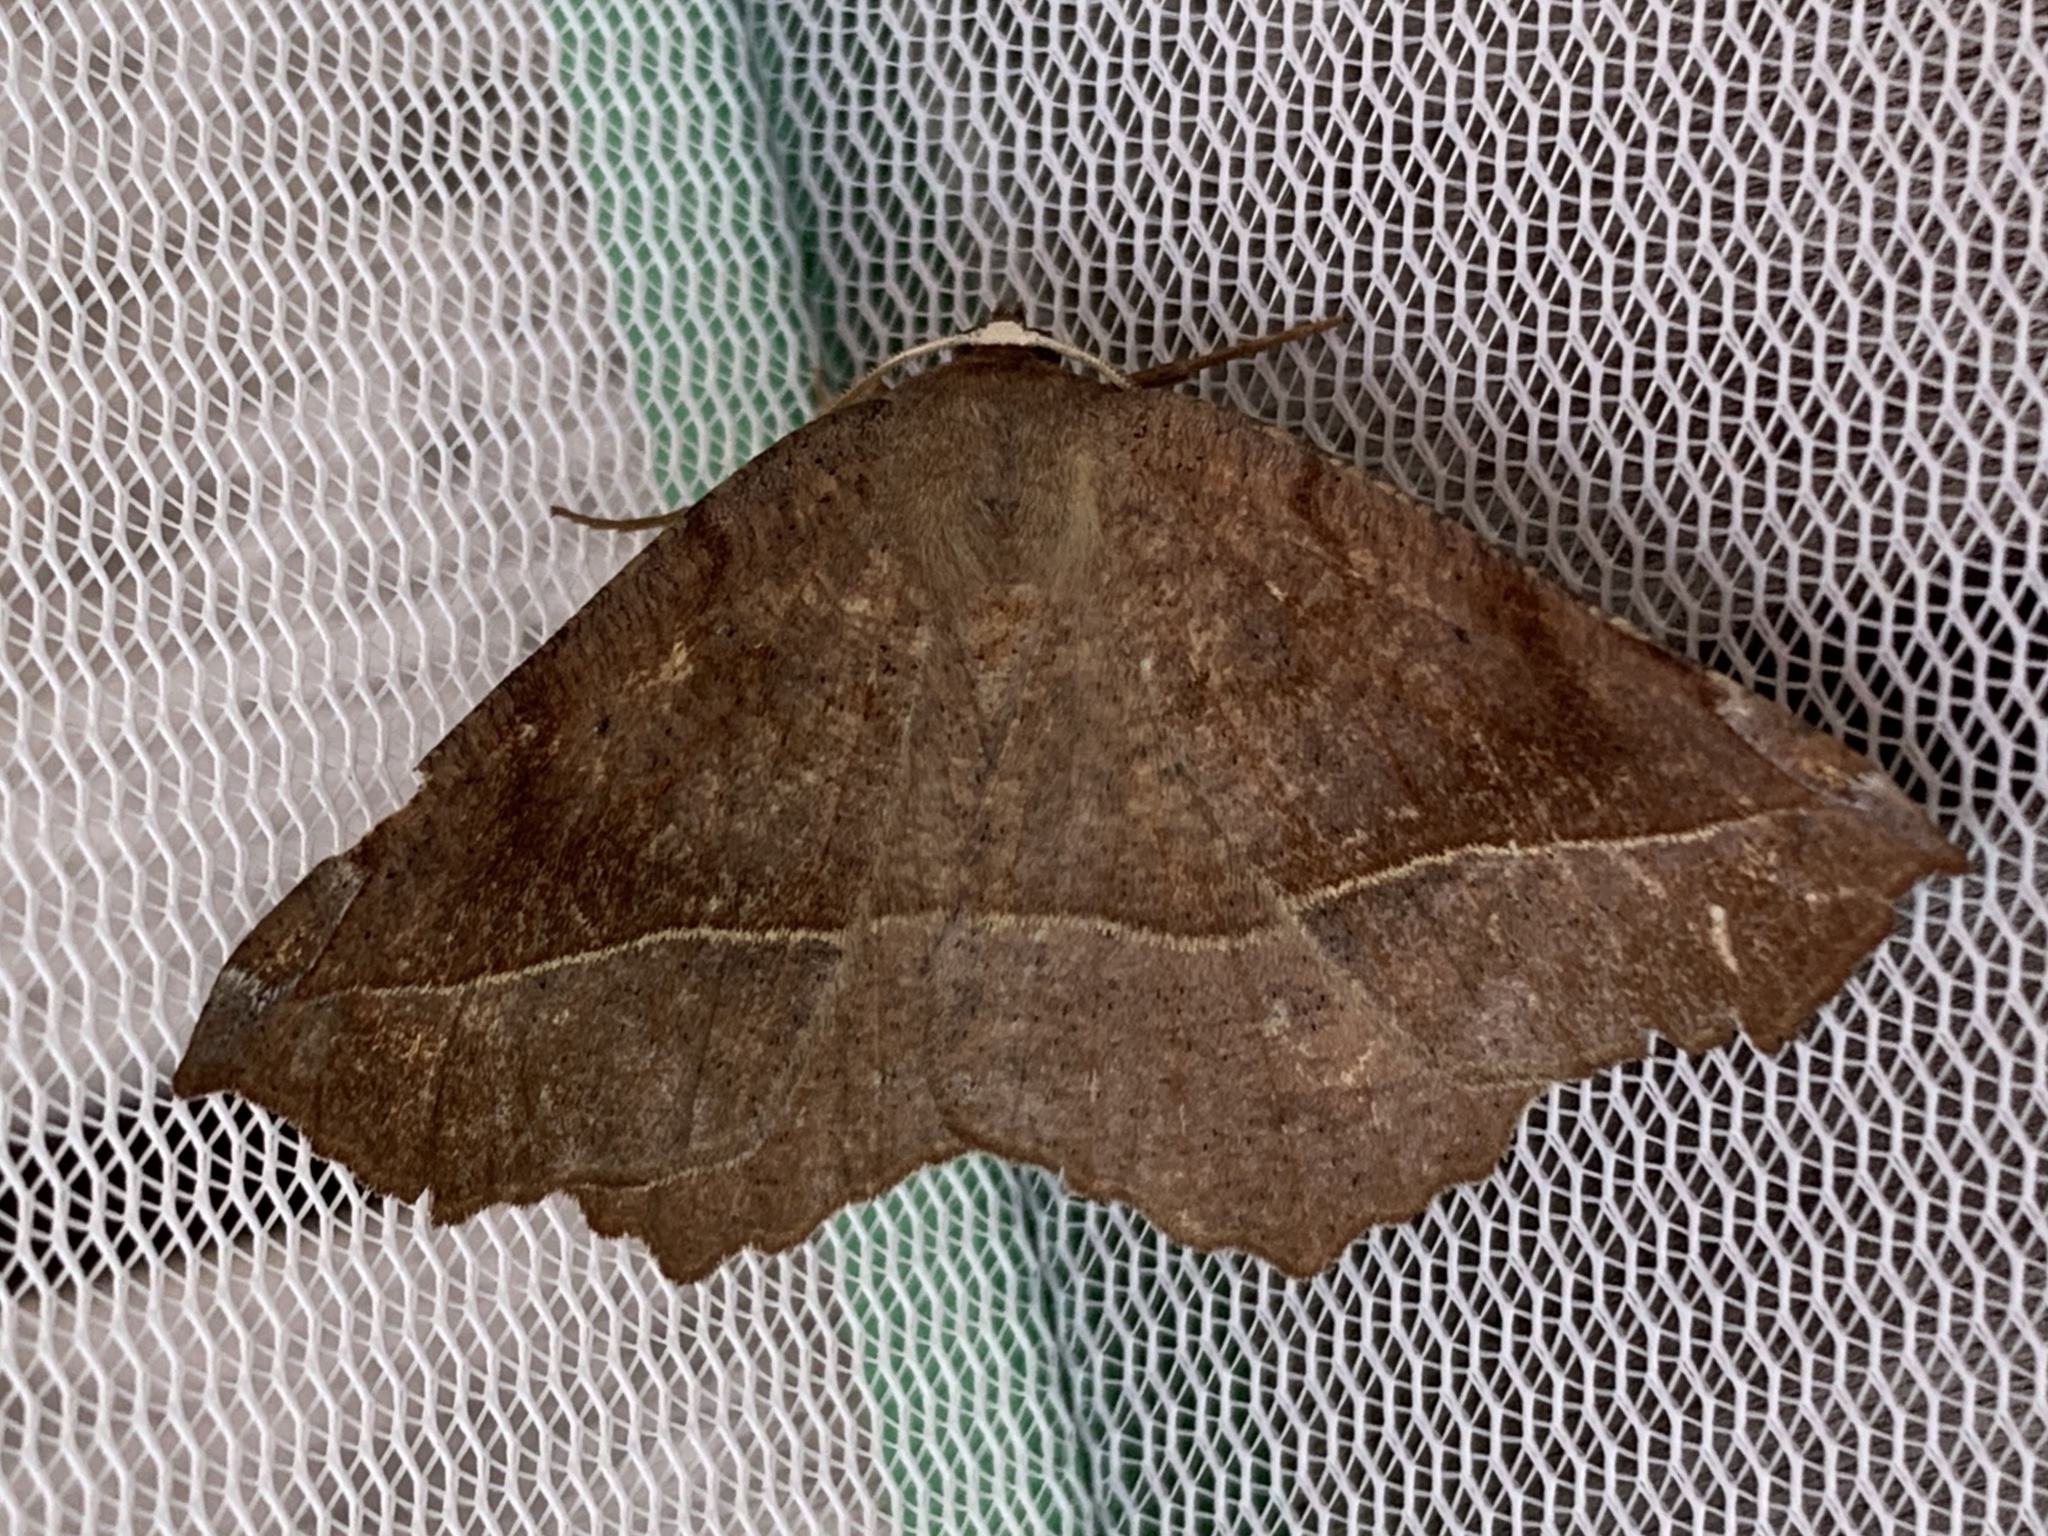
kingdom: Animalia
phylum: Arthropoda
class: Insecta
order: Lepidoptera
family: Geometridae
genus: Eutrapela
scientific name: Eutrapela clemataria
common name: Curved-toothed geometer
